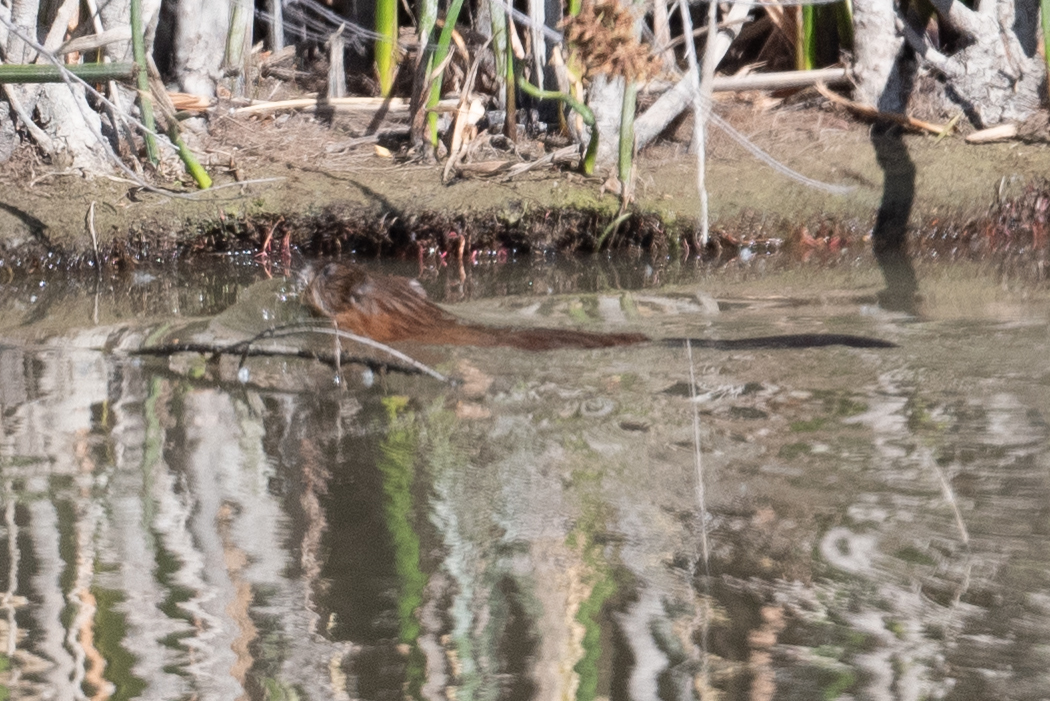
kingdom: Animalia
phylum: Chordata
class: Mammalia
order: Rodentia
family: Cricetidae
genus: Ondatra
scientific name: Ondatra zibethicus
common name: Muskrat
